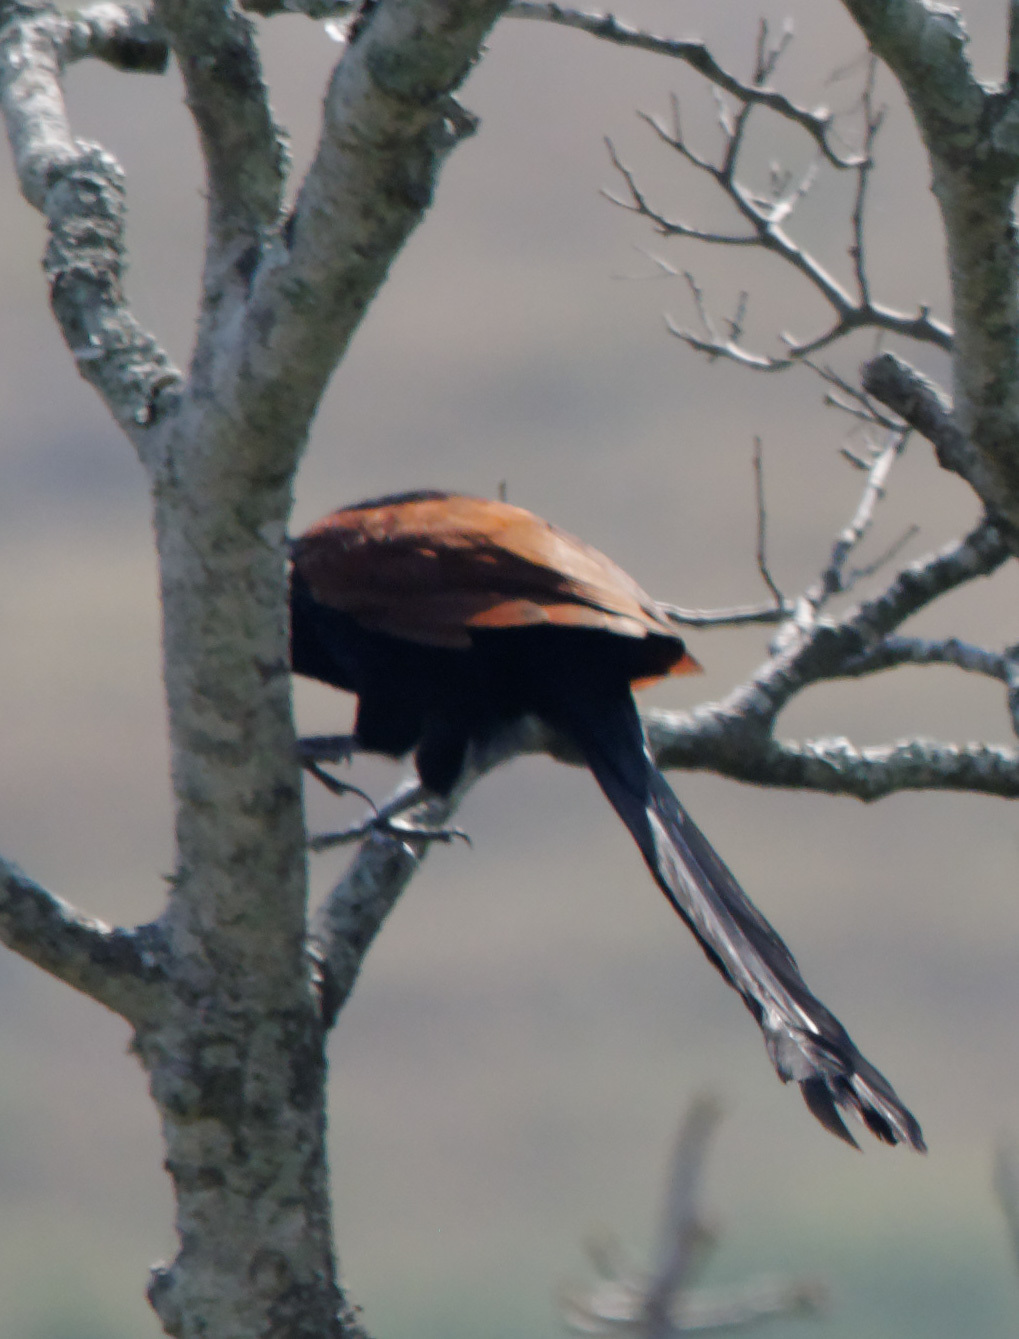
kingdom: Animalia
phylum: Chordata
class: Aves
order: Cuculiformes
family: Cuculidae
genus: Centropus
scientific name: Centropus toulou
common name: Malagasy coucal
